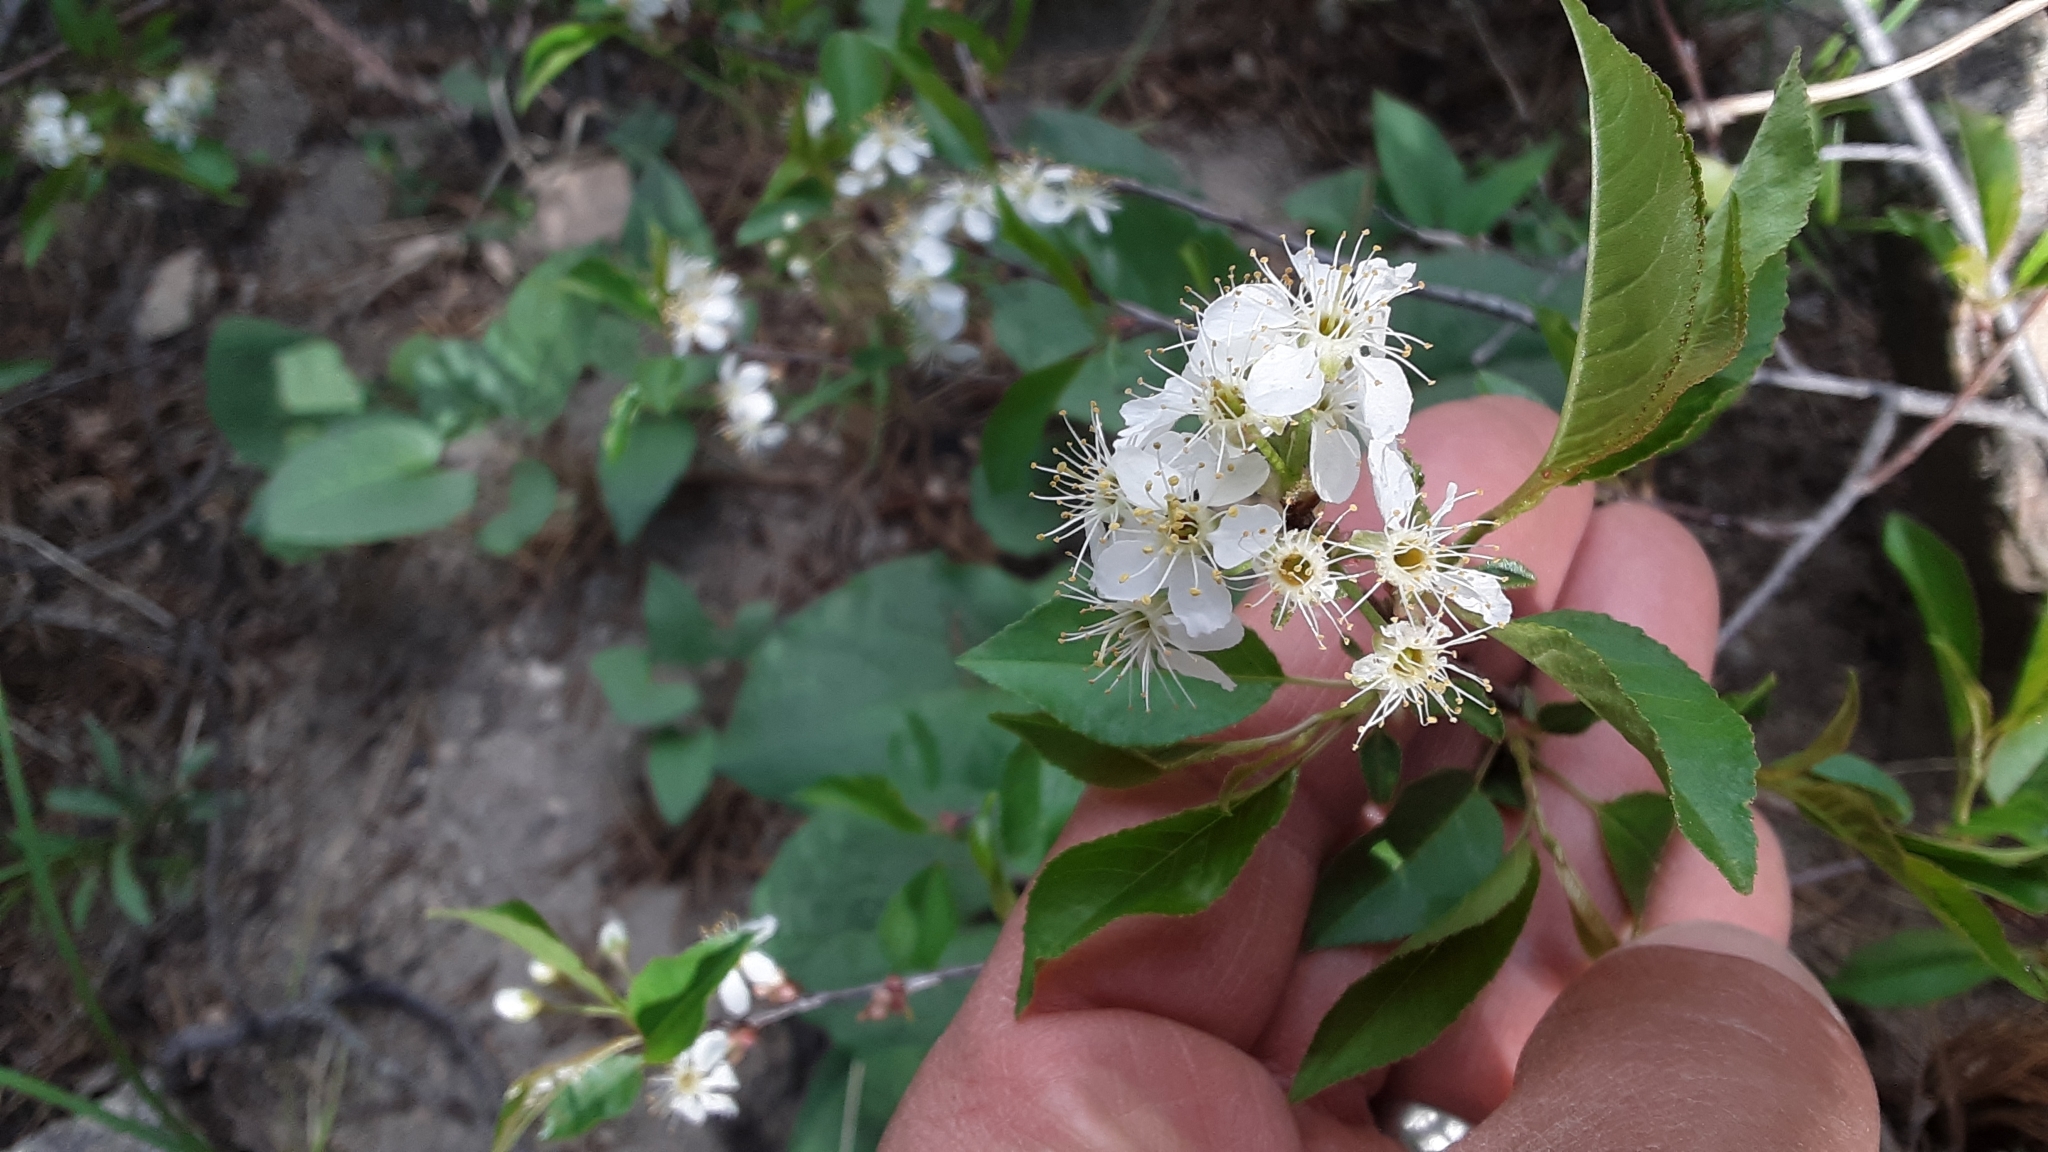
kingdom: Plantae
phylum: Tracheophyta
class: Magnoliopsida
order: Rosales
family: Rosaceae
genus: Prunus
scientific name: Prunus pensylvanica
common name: Pin cherry
